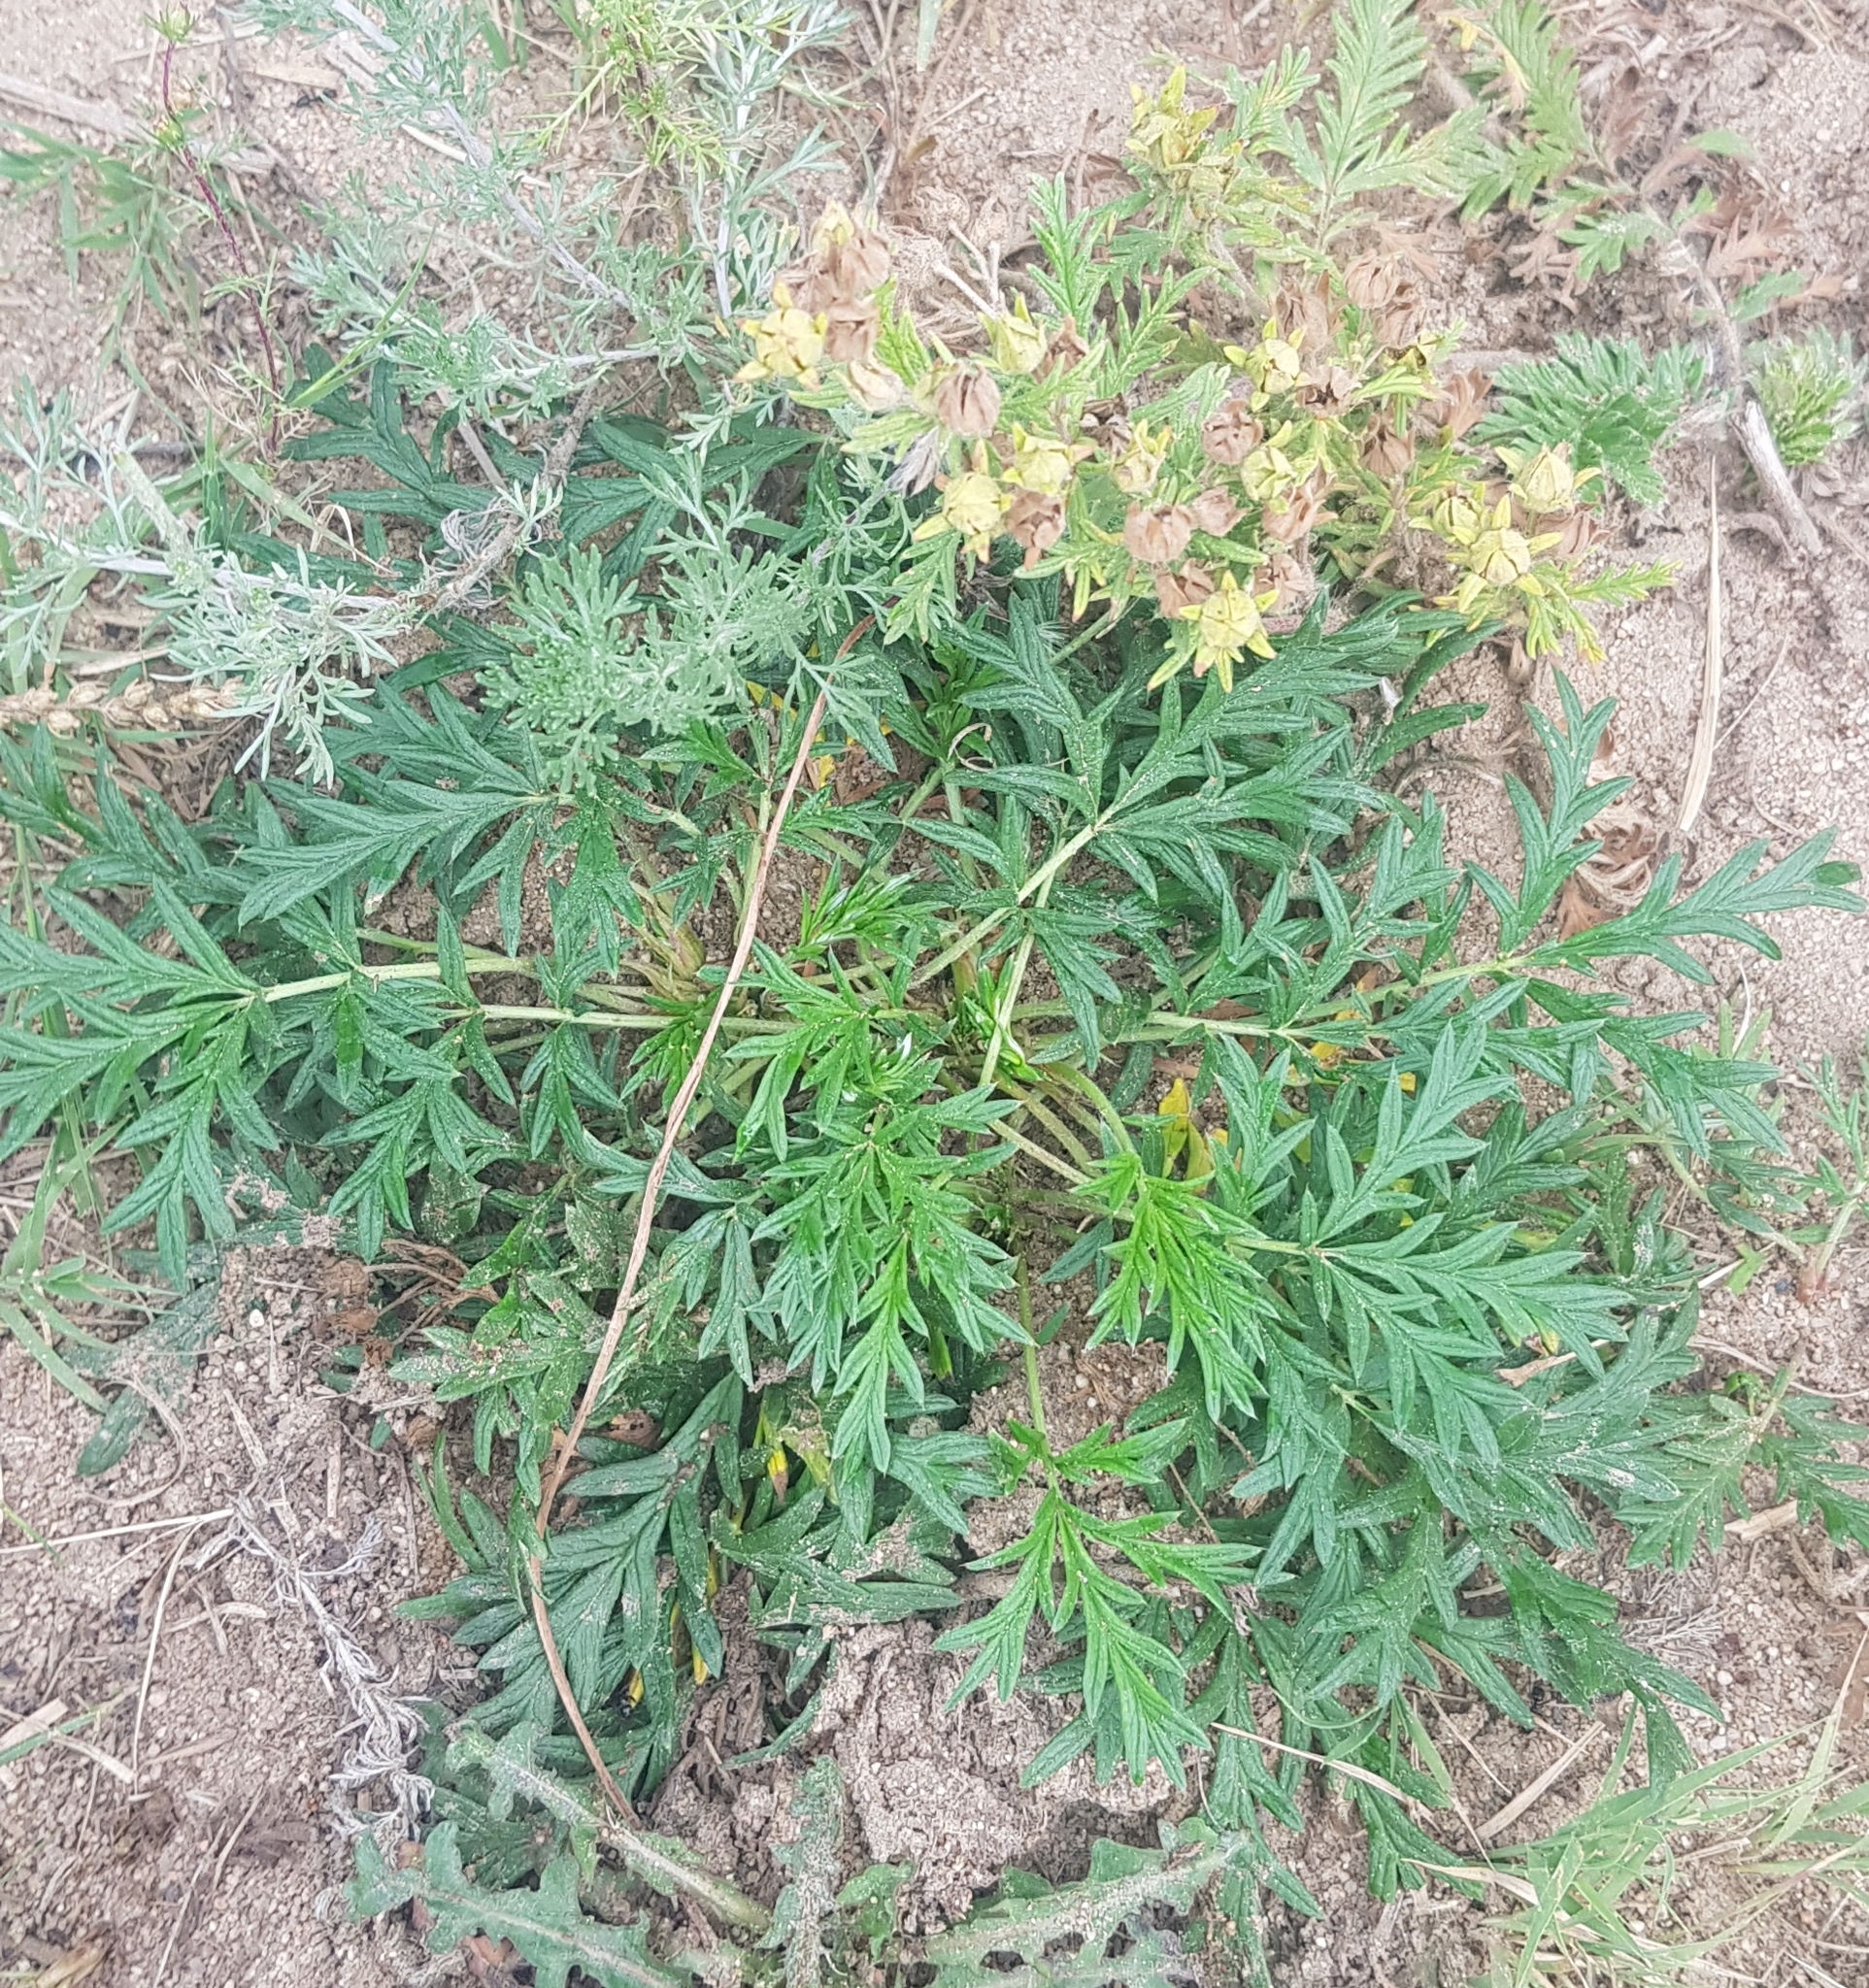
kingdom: Plantae
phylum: Tracheophyta
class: Magnoliopsida
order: Rosales
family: Rosaceae
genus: Potentilla
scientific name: Potentilla tergemina
